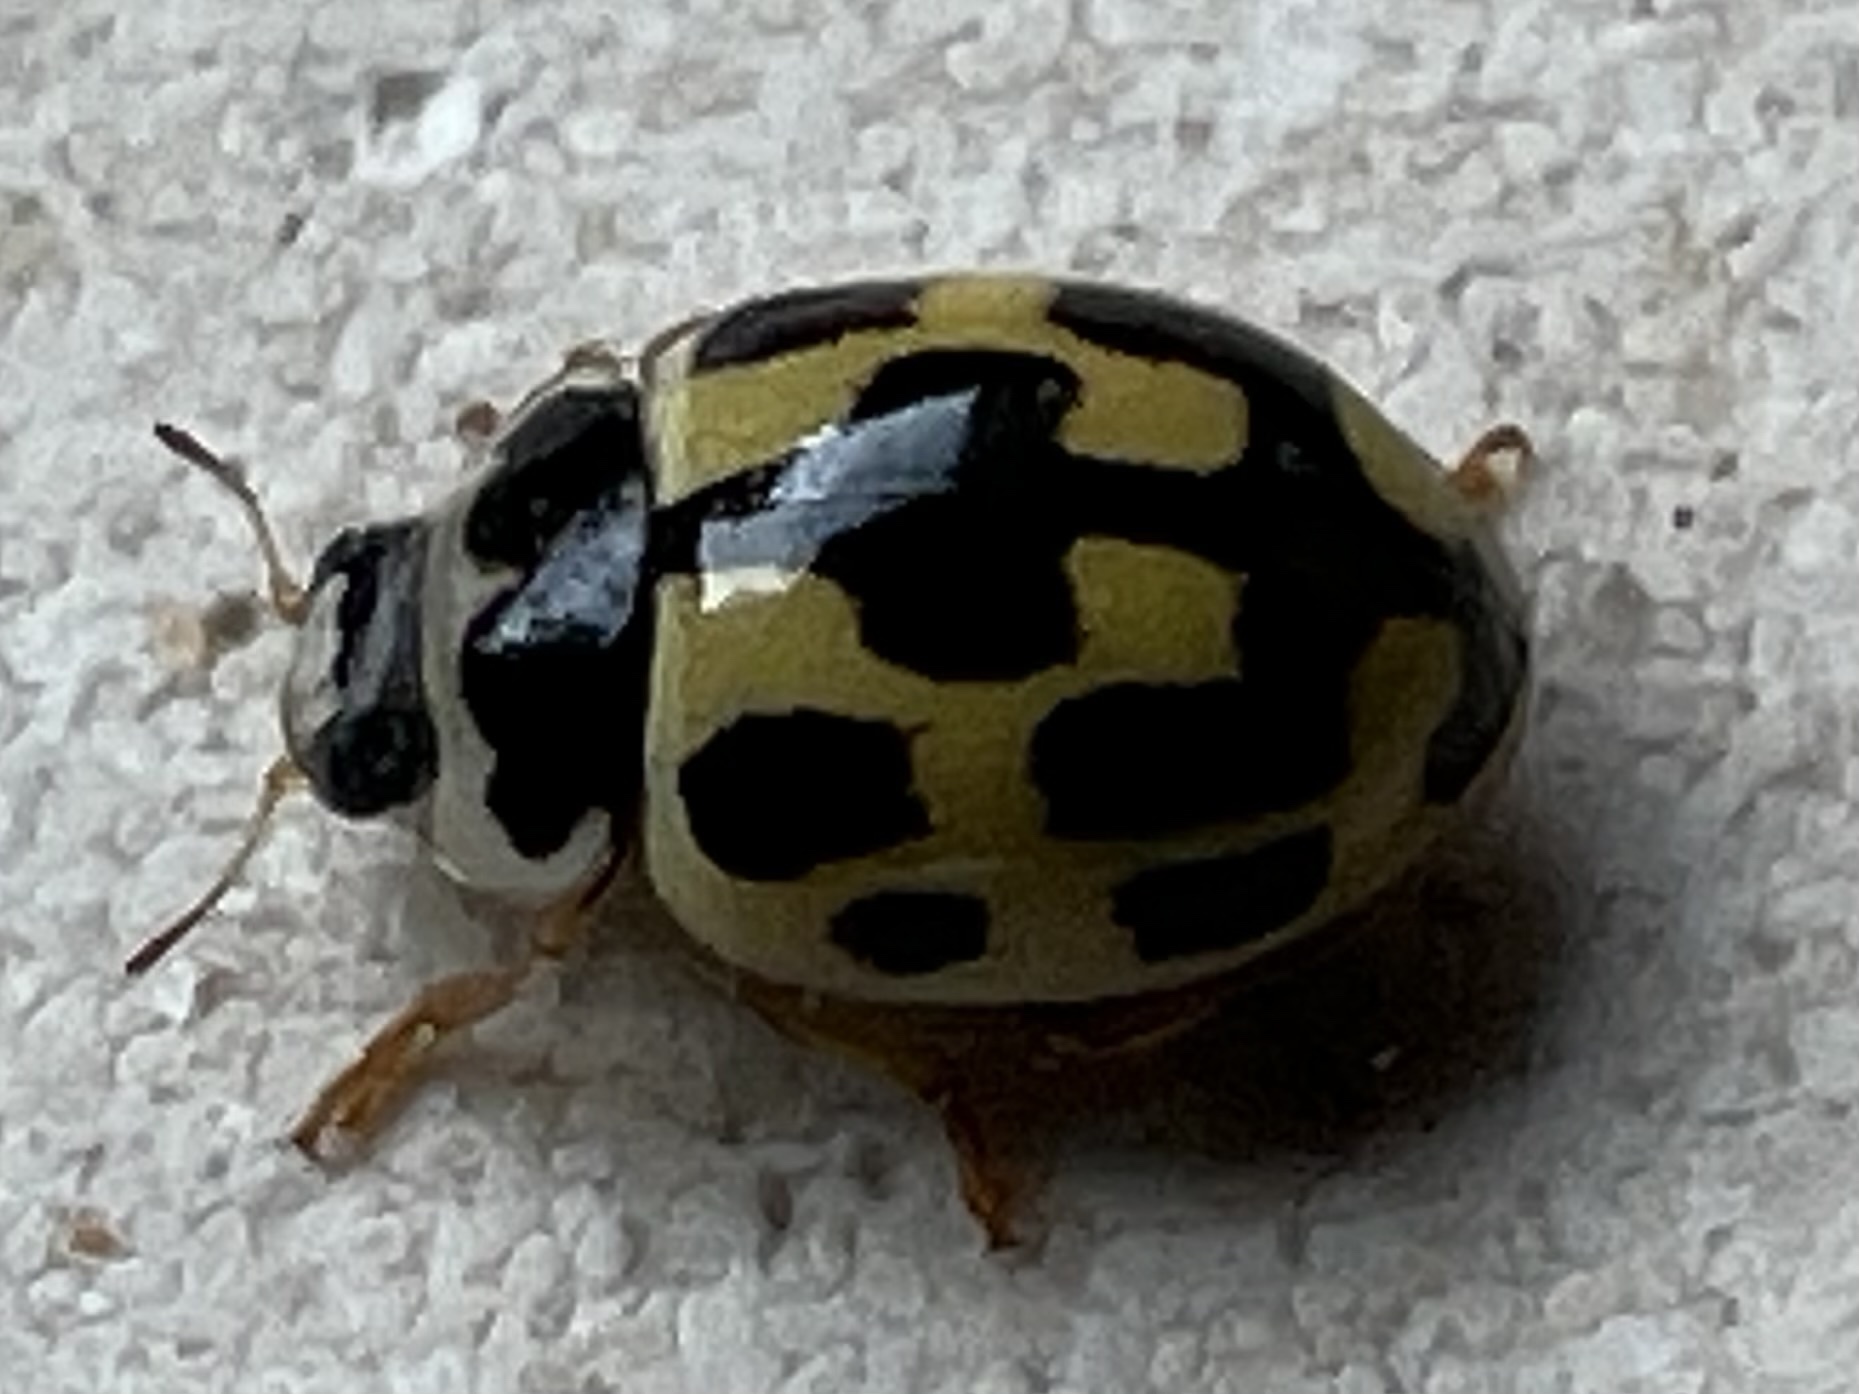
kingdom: Animalia
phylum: Arthropoda
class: Insecta
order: Coleoptera
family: Coccinellidae
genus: Propylaea
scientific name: Propylaea quatuordecimpunctata
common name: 14-spotted ladybird beetle
